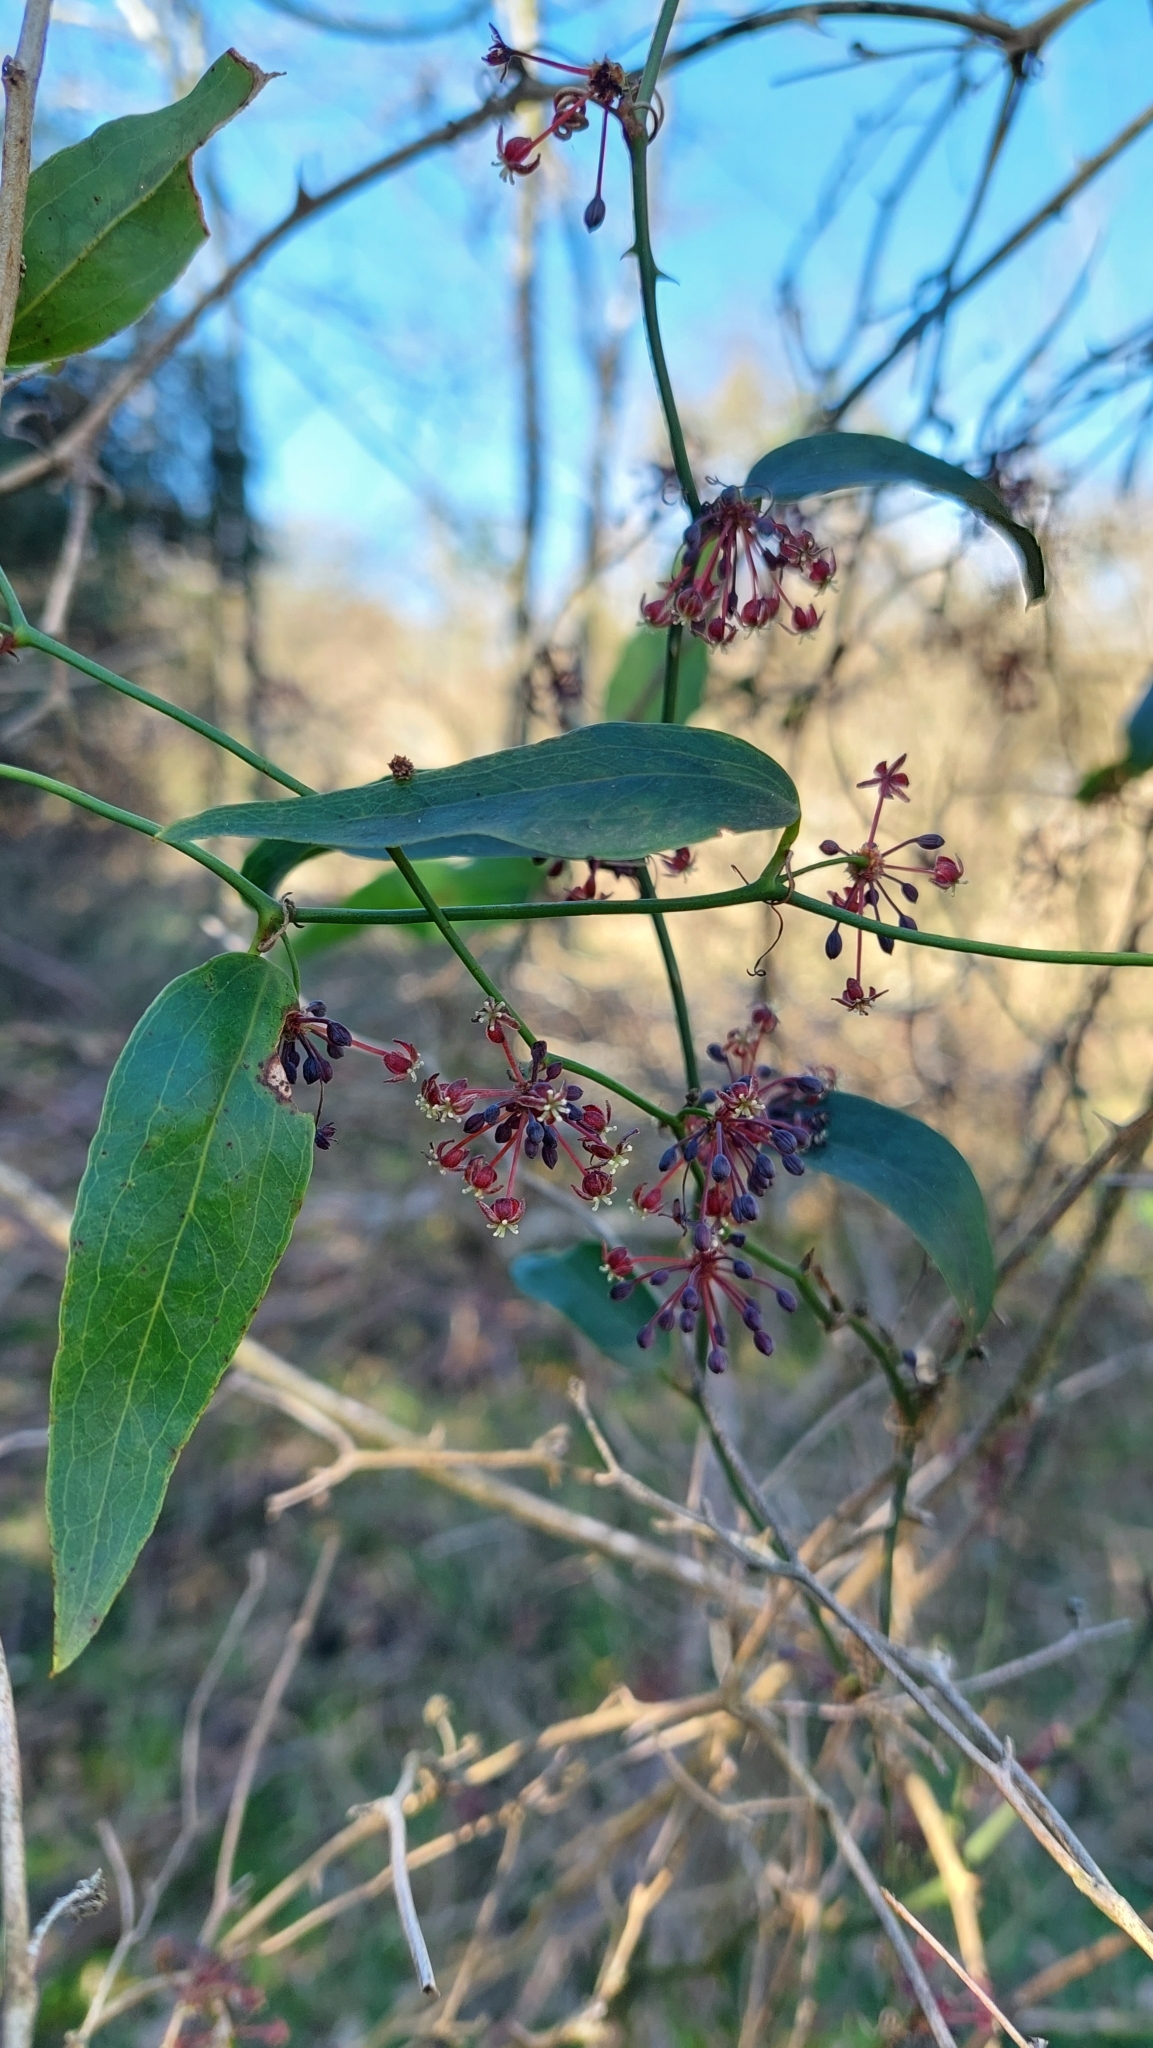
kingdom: Plantae
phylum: Tracheophyta
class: Liliopsida
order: Liliales
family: Smilacaceae
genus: Smilax
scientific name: Smilax campestris
